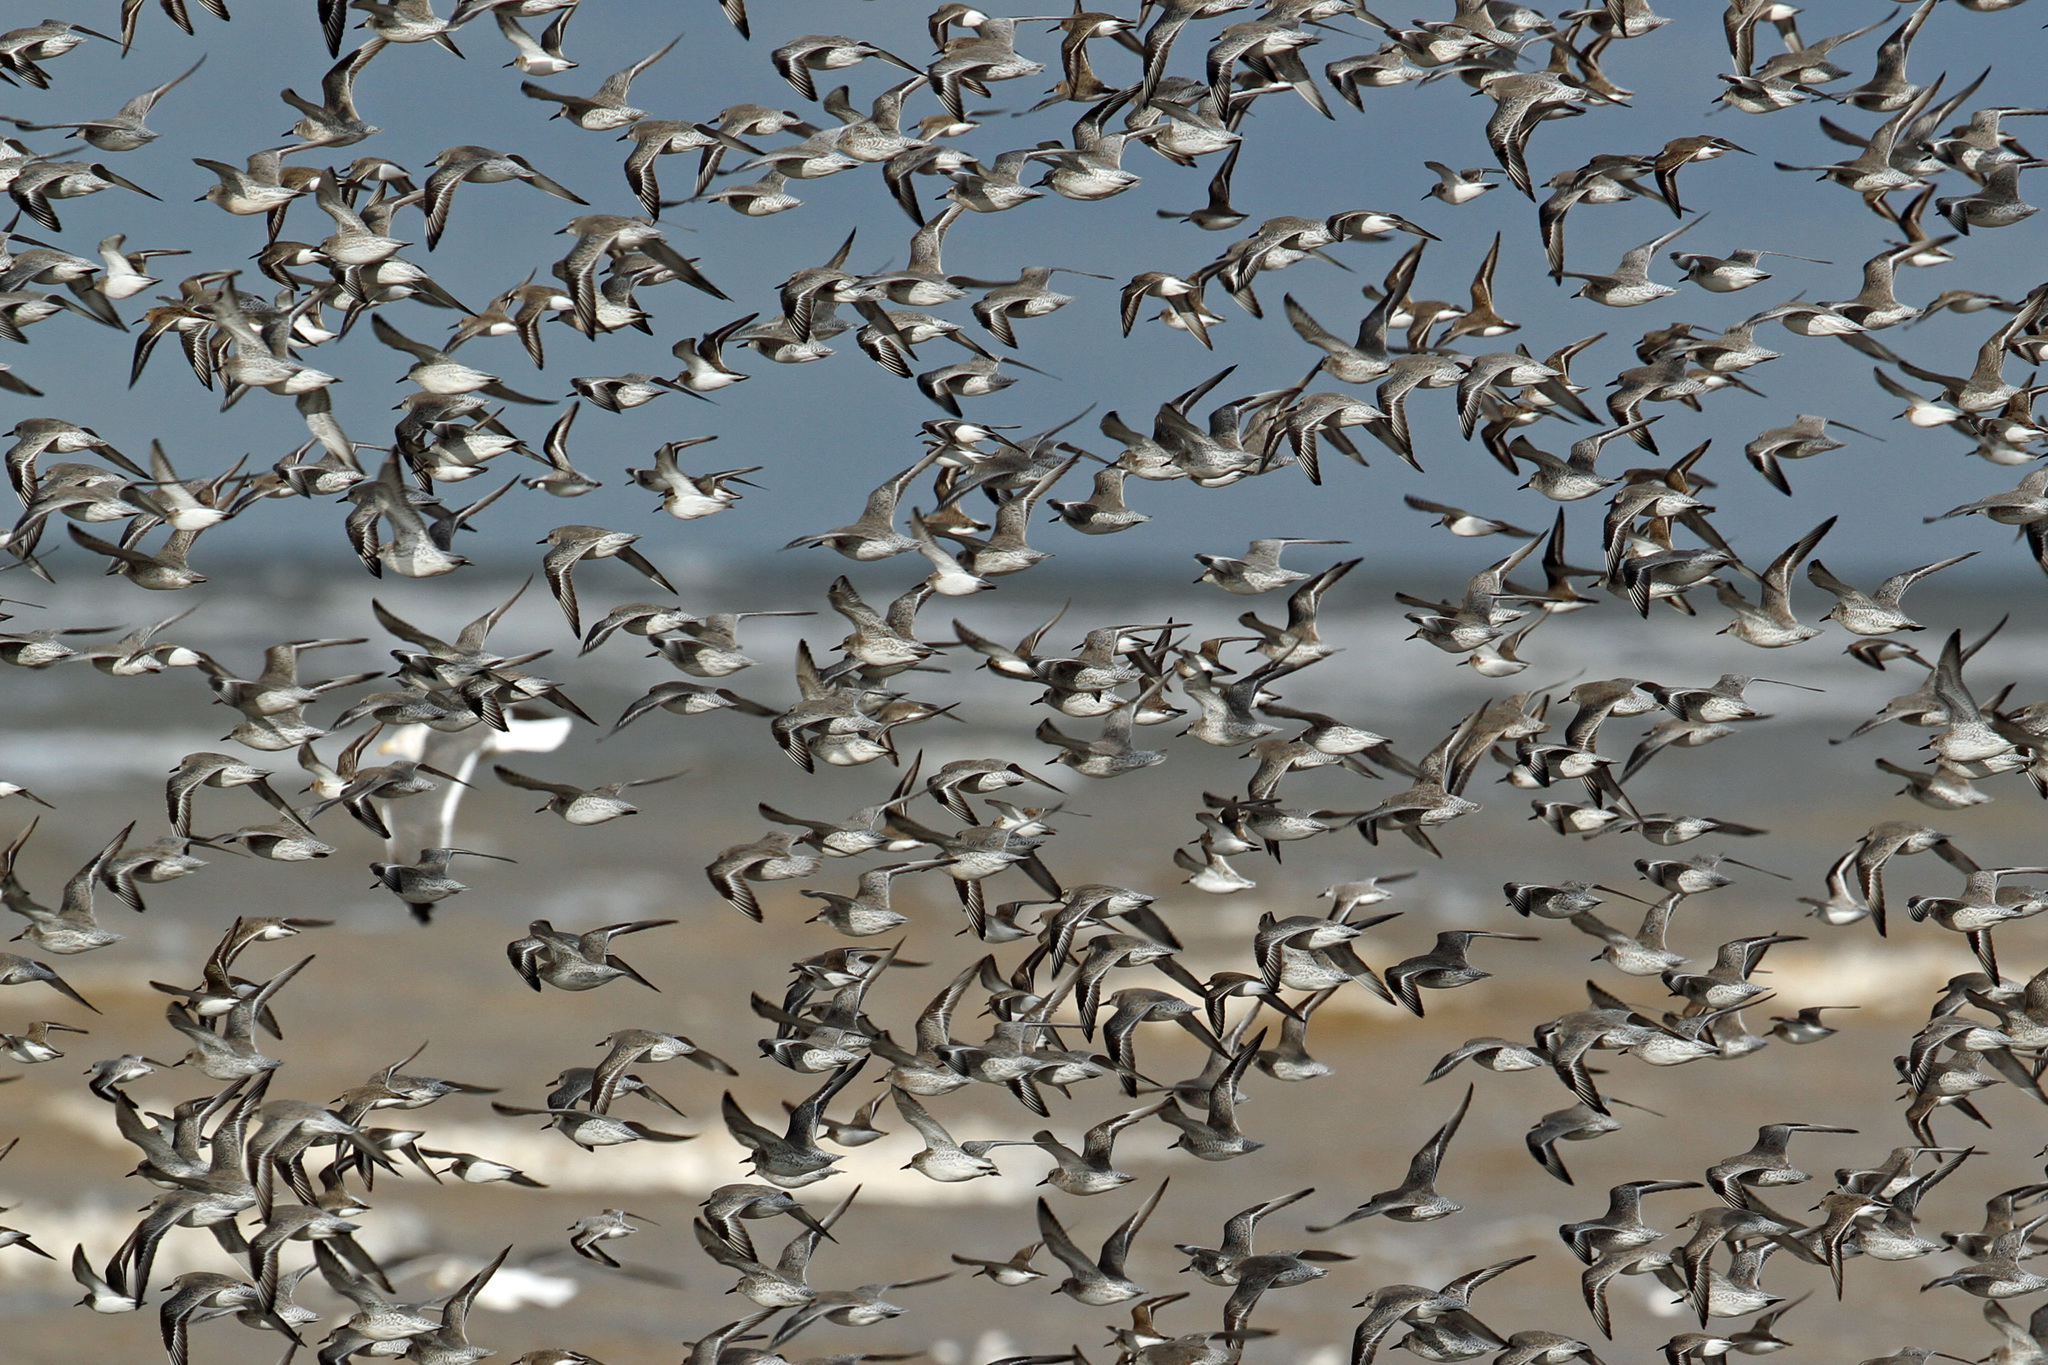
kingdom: Animalia
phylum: Chordata
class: Aves
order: Charadriiformes
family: Scolopacidae
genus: Calidris
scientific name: Calidris canutus
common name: Red knot
